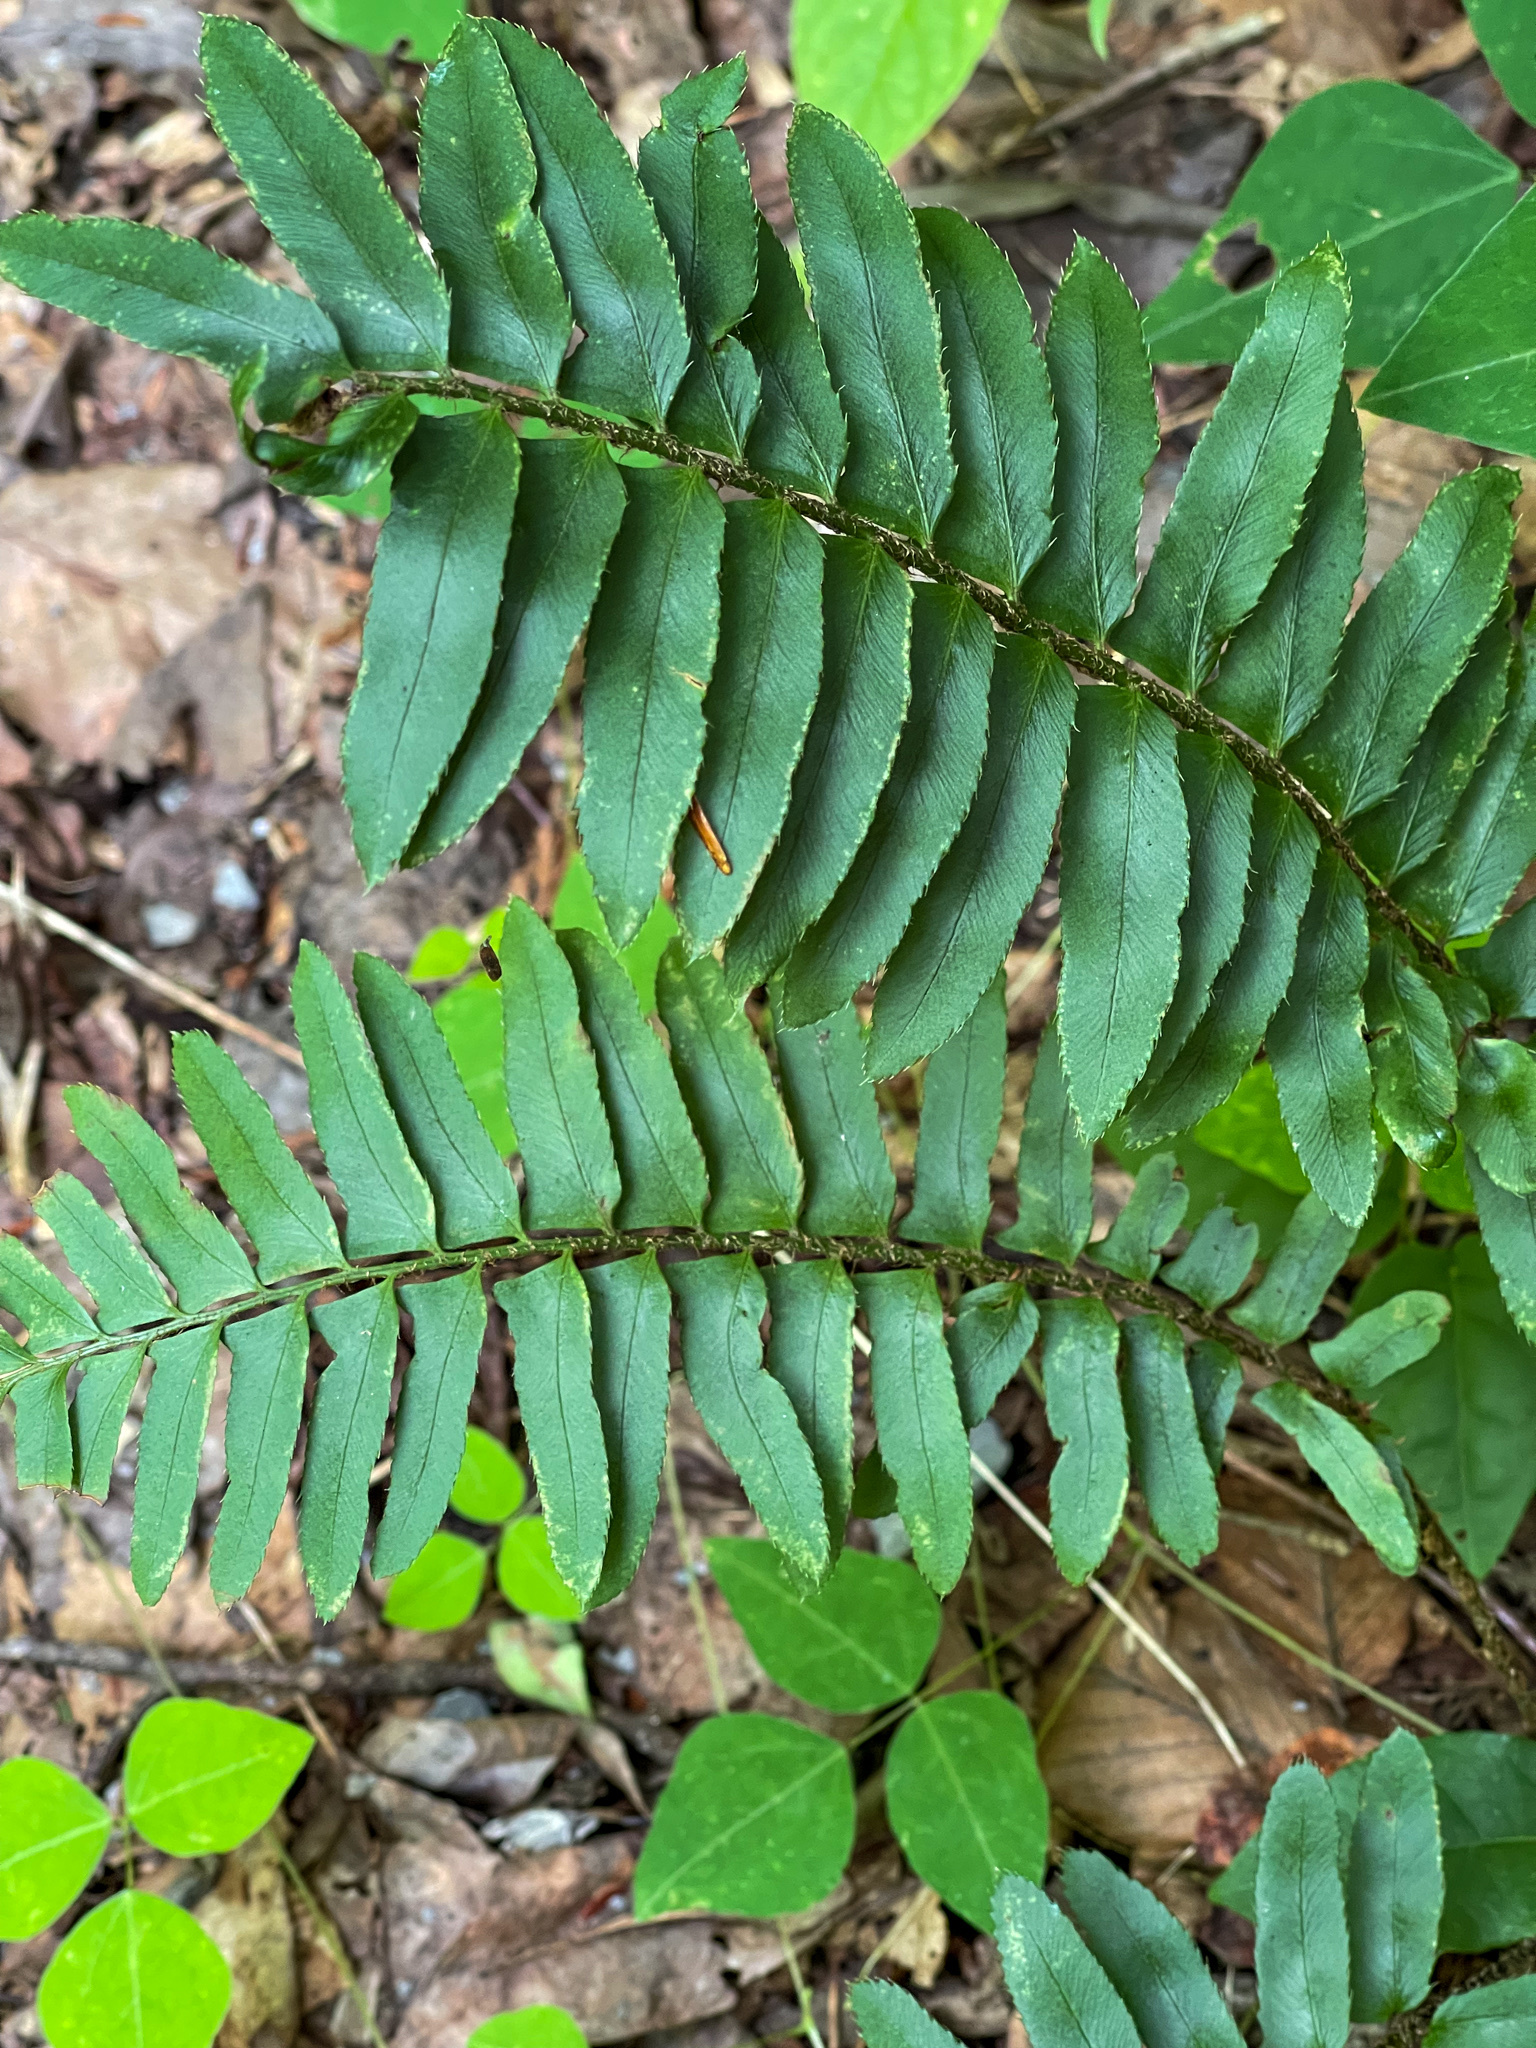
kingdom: Plantae
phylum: Tracheophyta
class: Polypodiopsida
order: Polypodiales
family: Dryopteridaceae
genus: Polystichum
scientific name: Polystichum acrostichoides
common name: Christmas fern
